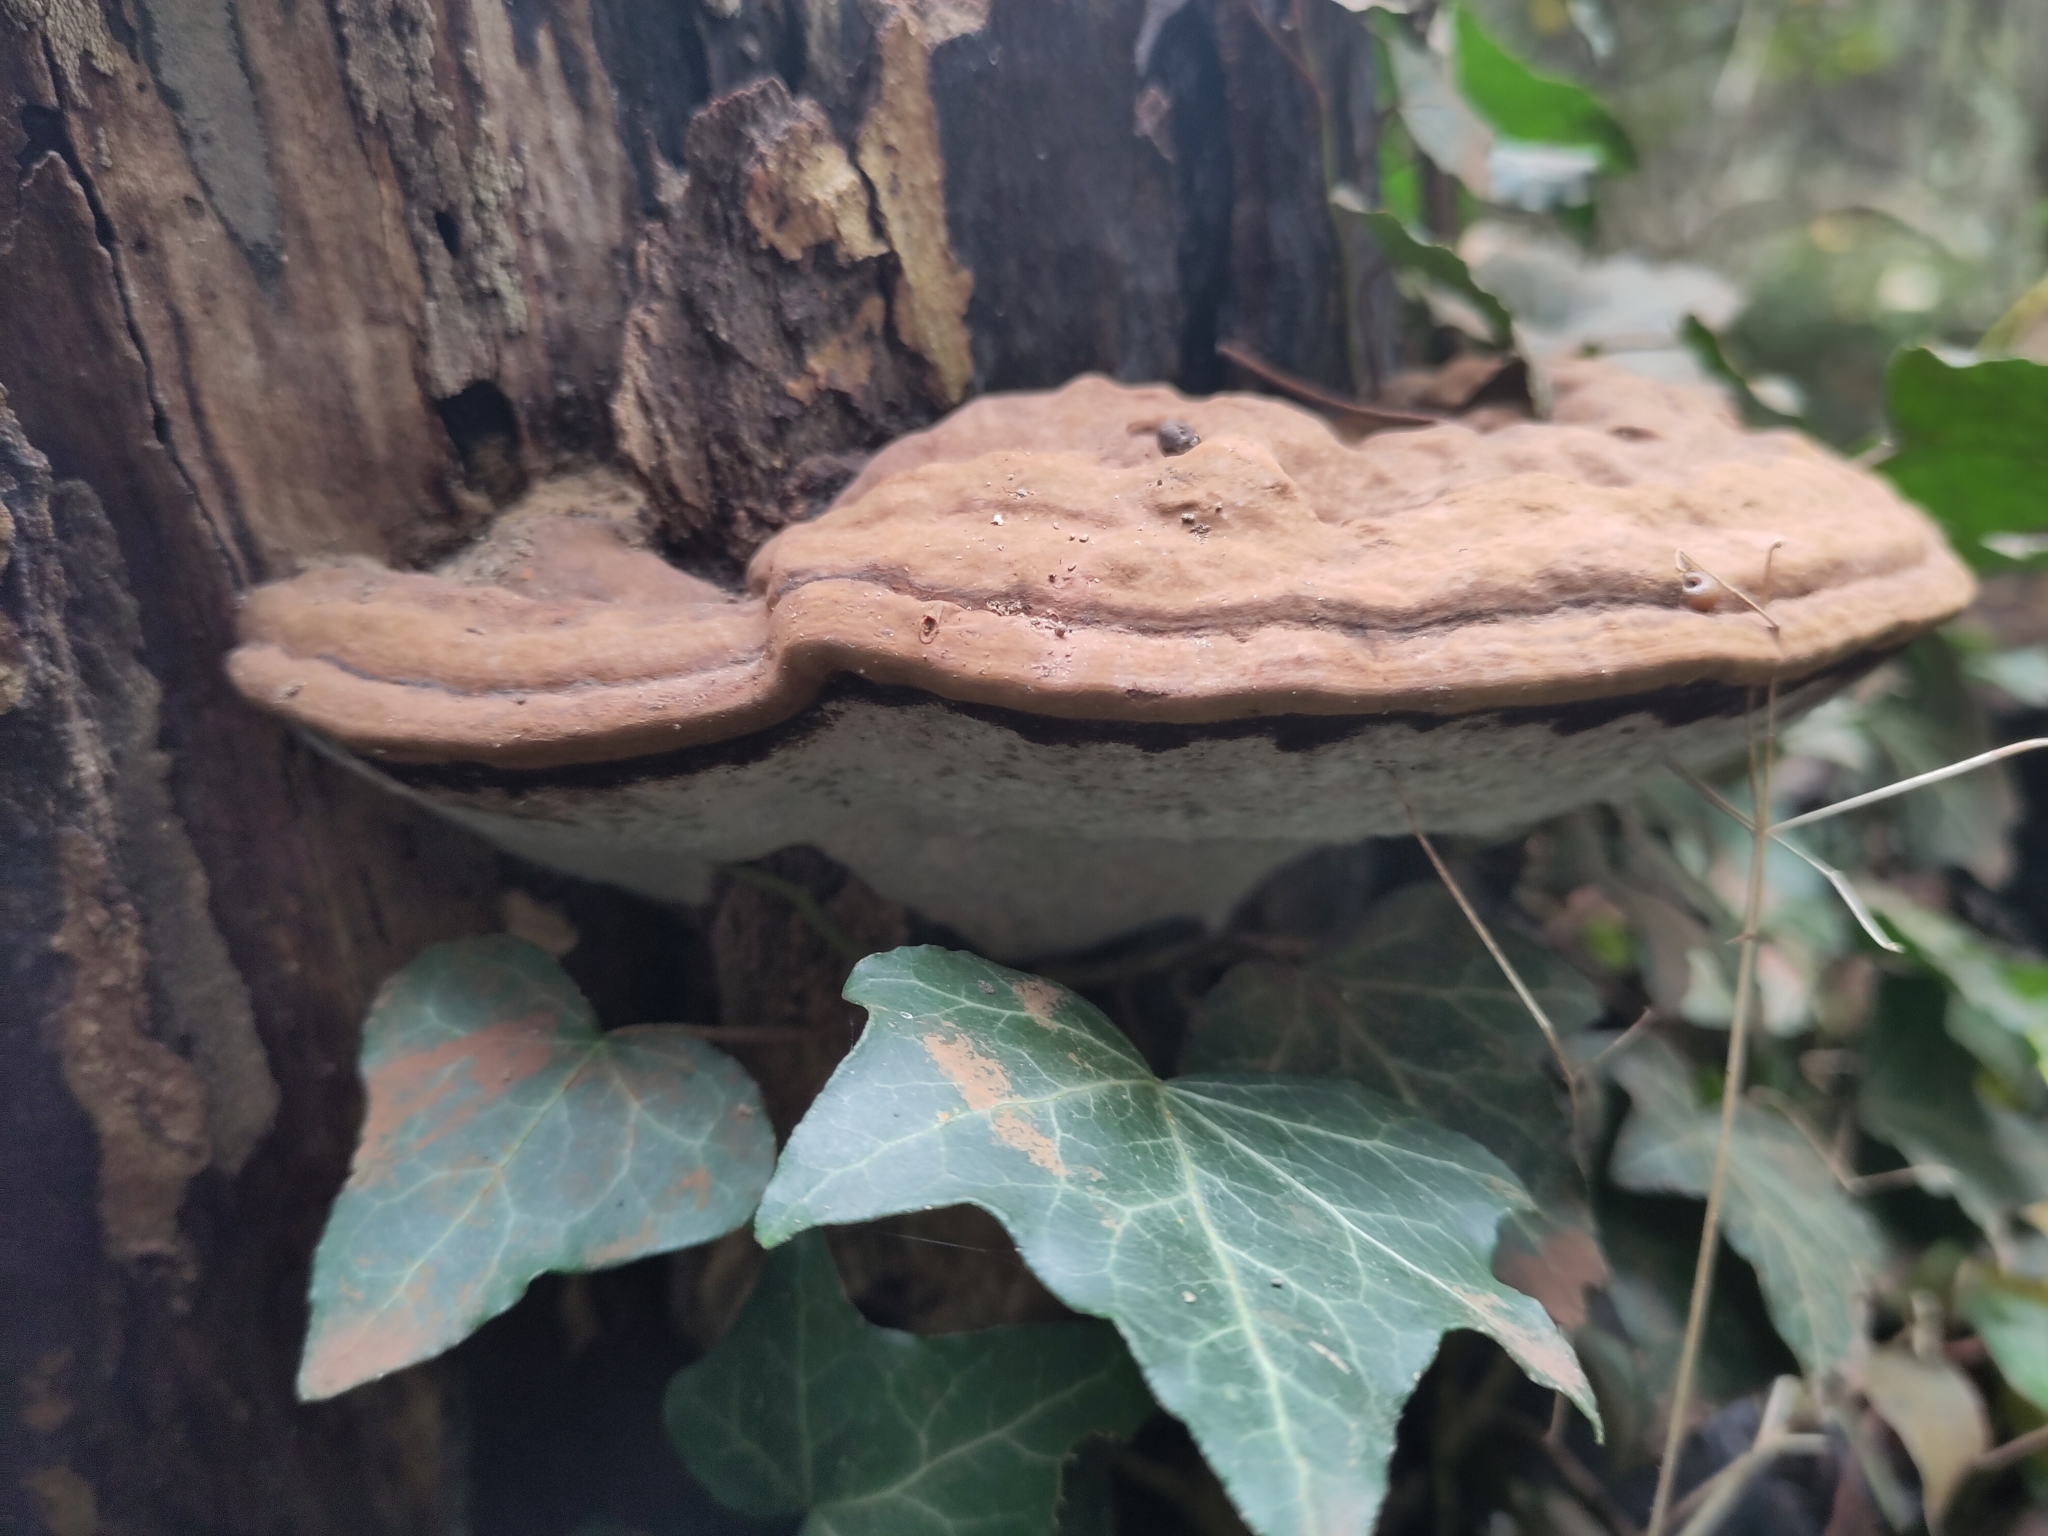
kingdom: Fungi
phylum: Basidiomycota
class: Agaricomycetes
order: Polyporales
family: Polyporaceae
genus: Ganoderma
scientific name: Ganoderma applanatum
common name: Artist's bracket
